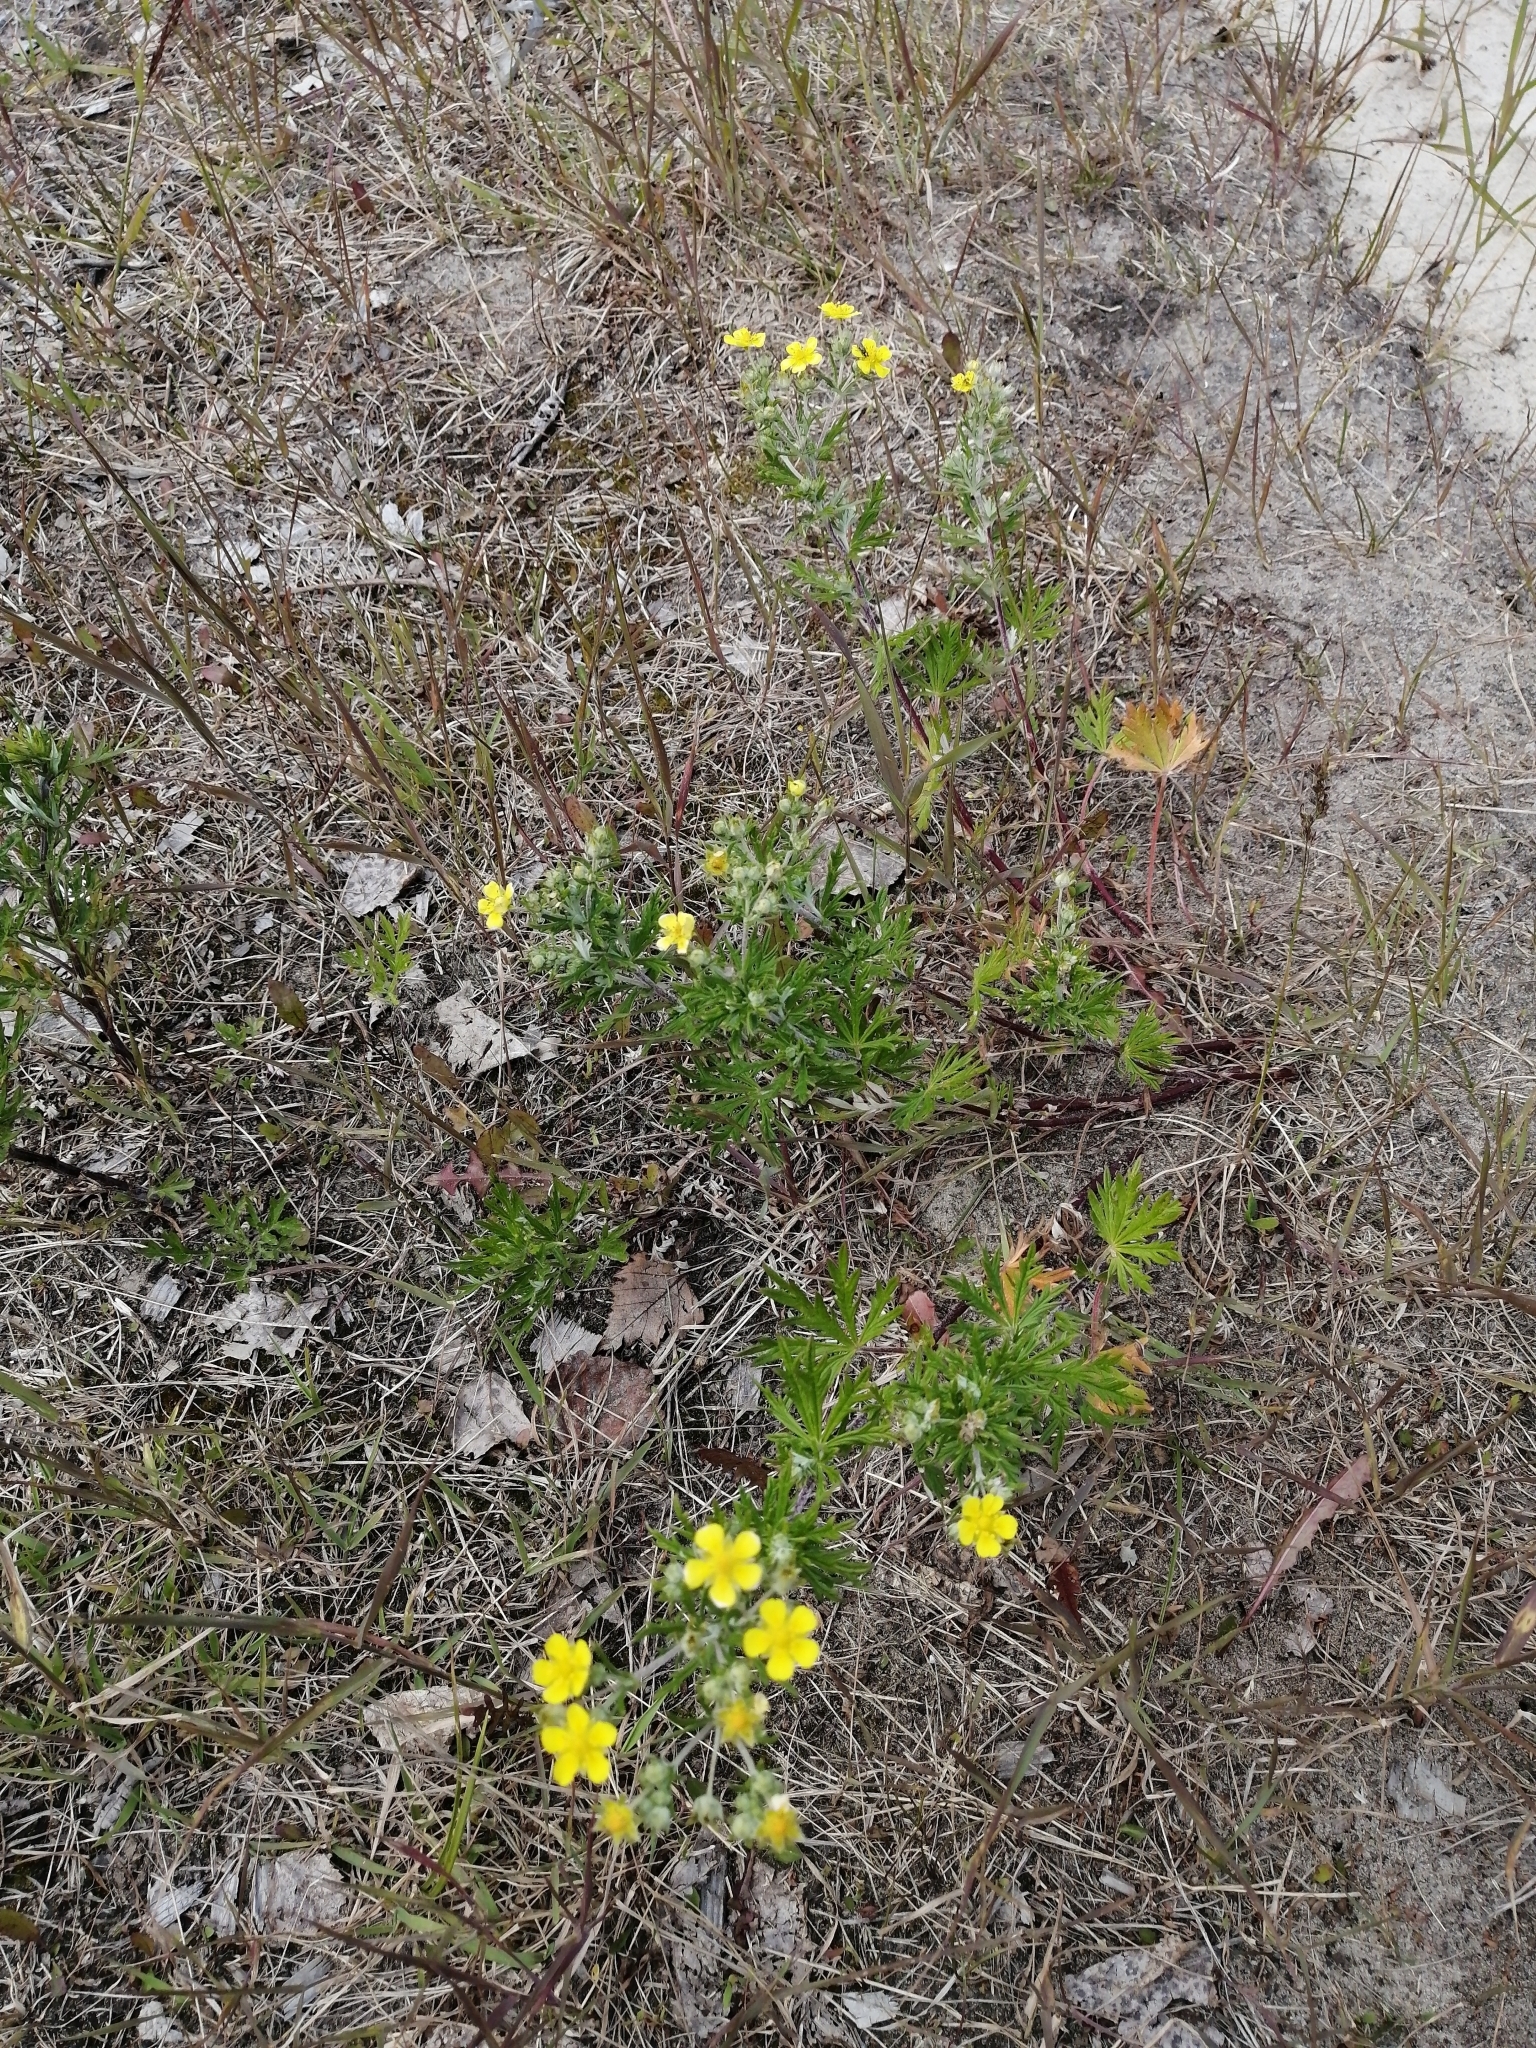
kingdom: Plantae
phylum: Tracheophyta
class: Magnoliopsida
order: Rosales
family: Rosaceae
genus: Potentilla
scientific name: Potentilla argentea
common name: Hoary cinquefoil
